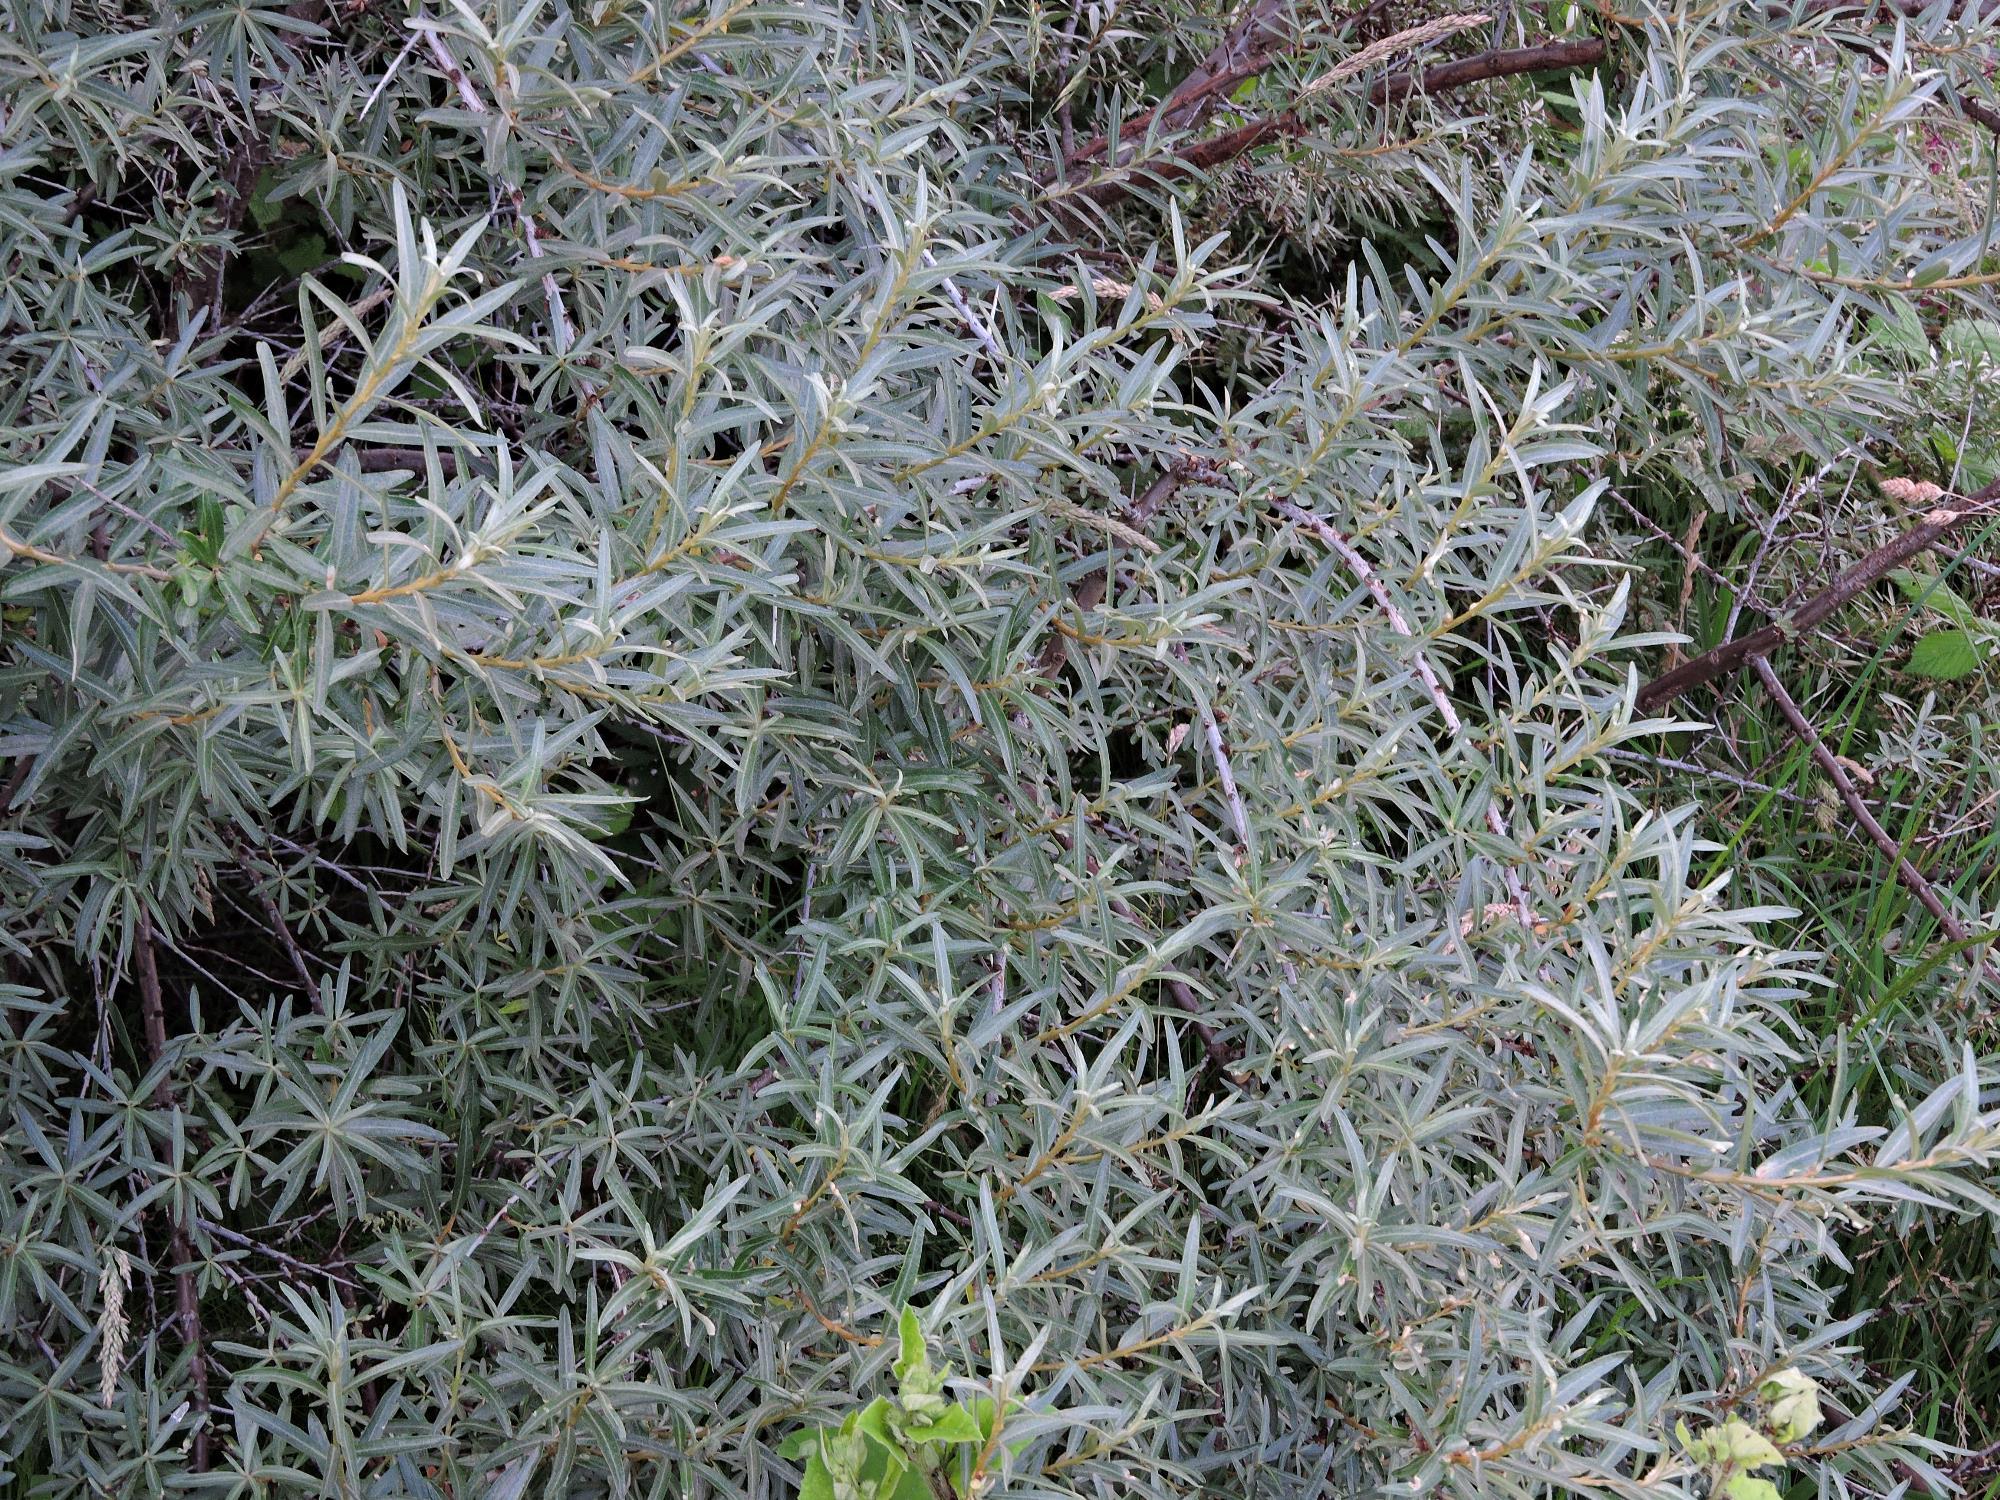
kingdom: Plantae
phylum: Tracheophyta
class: Magnoliopsida
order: Rosales
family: Elaeagnaceae
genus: Hippophae
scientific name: Hippophae rhamnoides
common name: Sea-buckthorn
